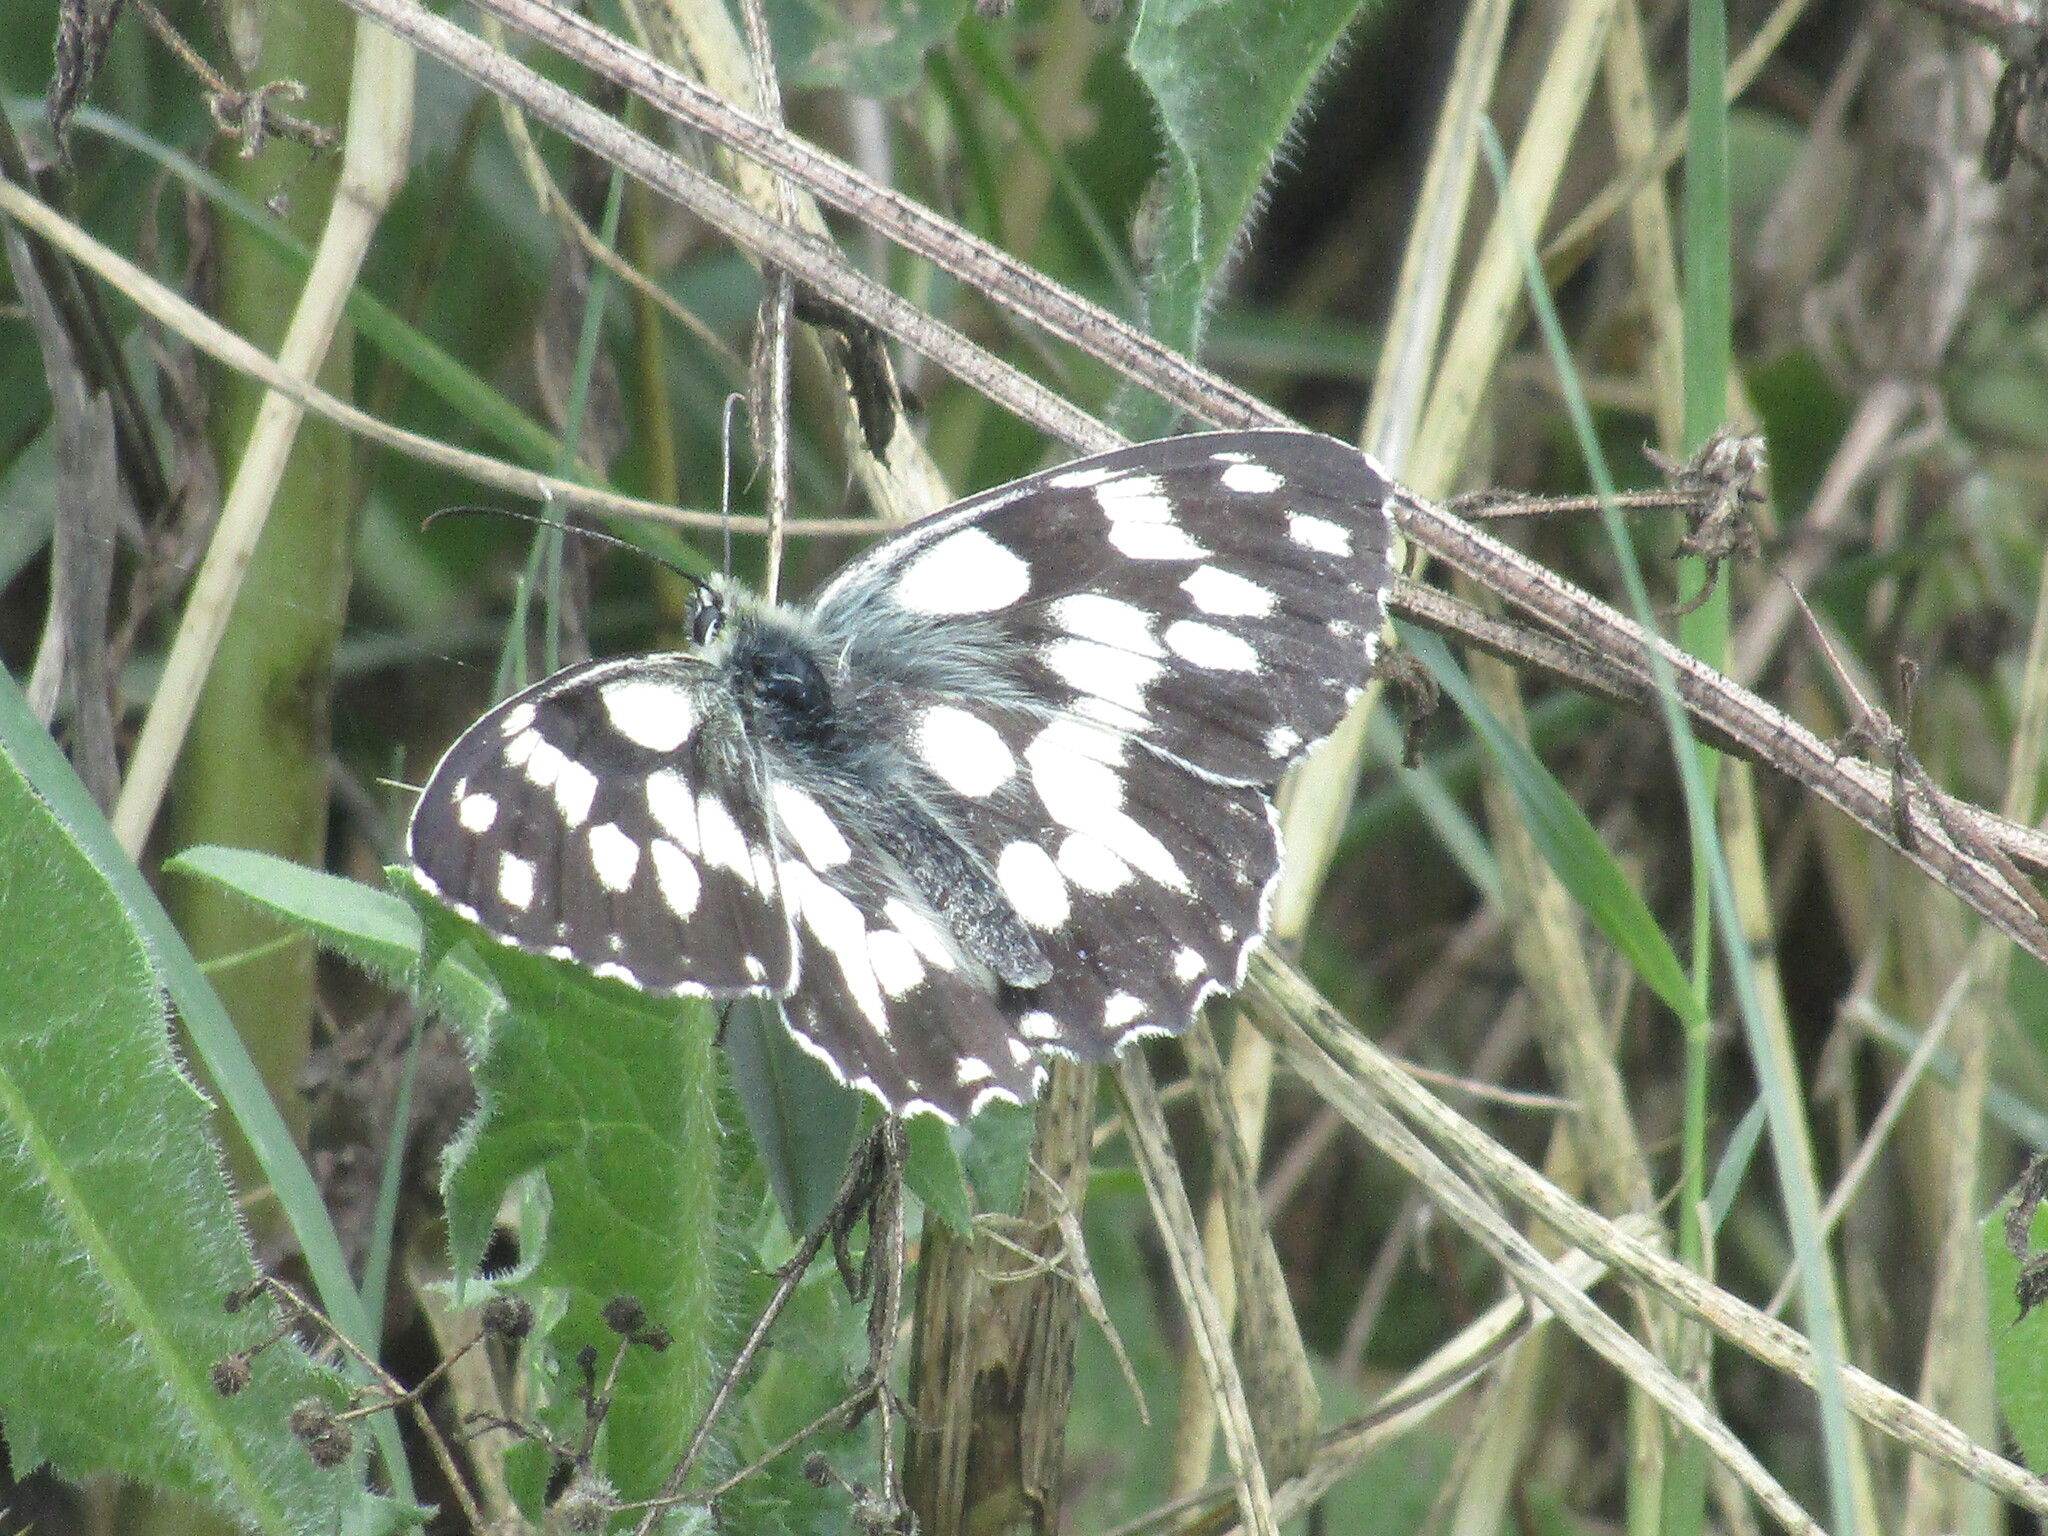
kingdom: Animalia
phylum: Arthropoda
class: Insecta
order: Lepidoptera
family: Nymphalidae
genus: Melanargia
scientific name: Melanargia galathea
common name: Marbled white
